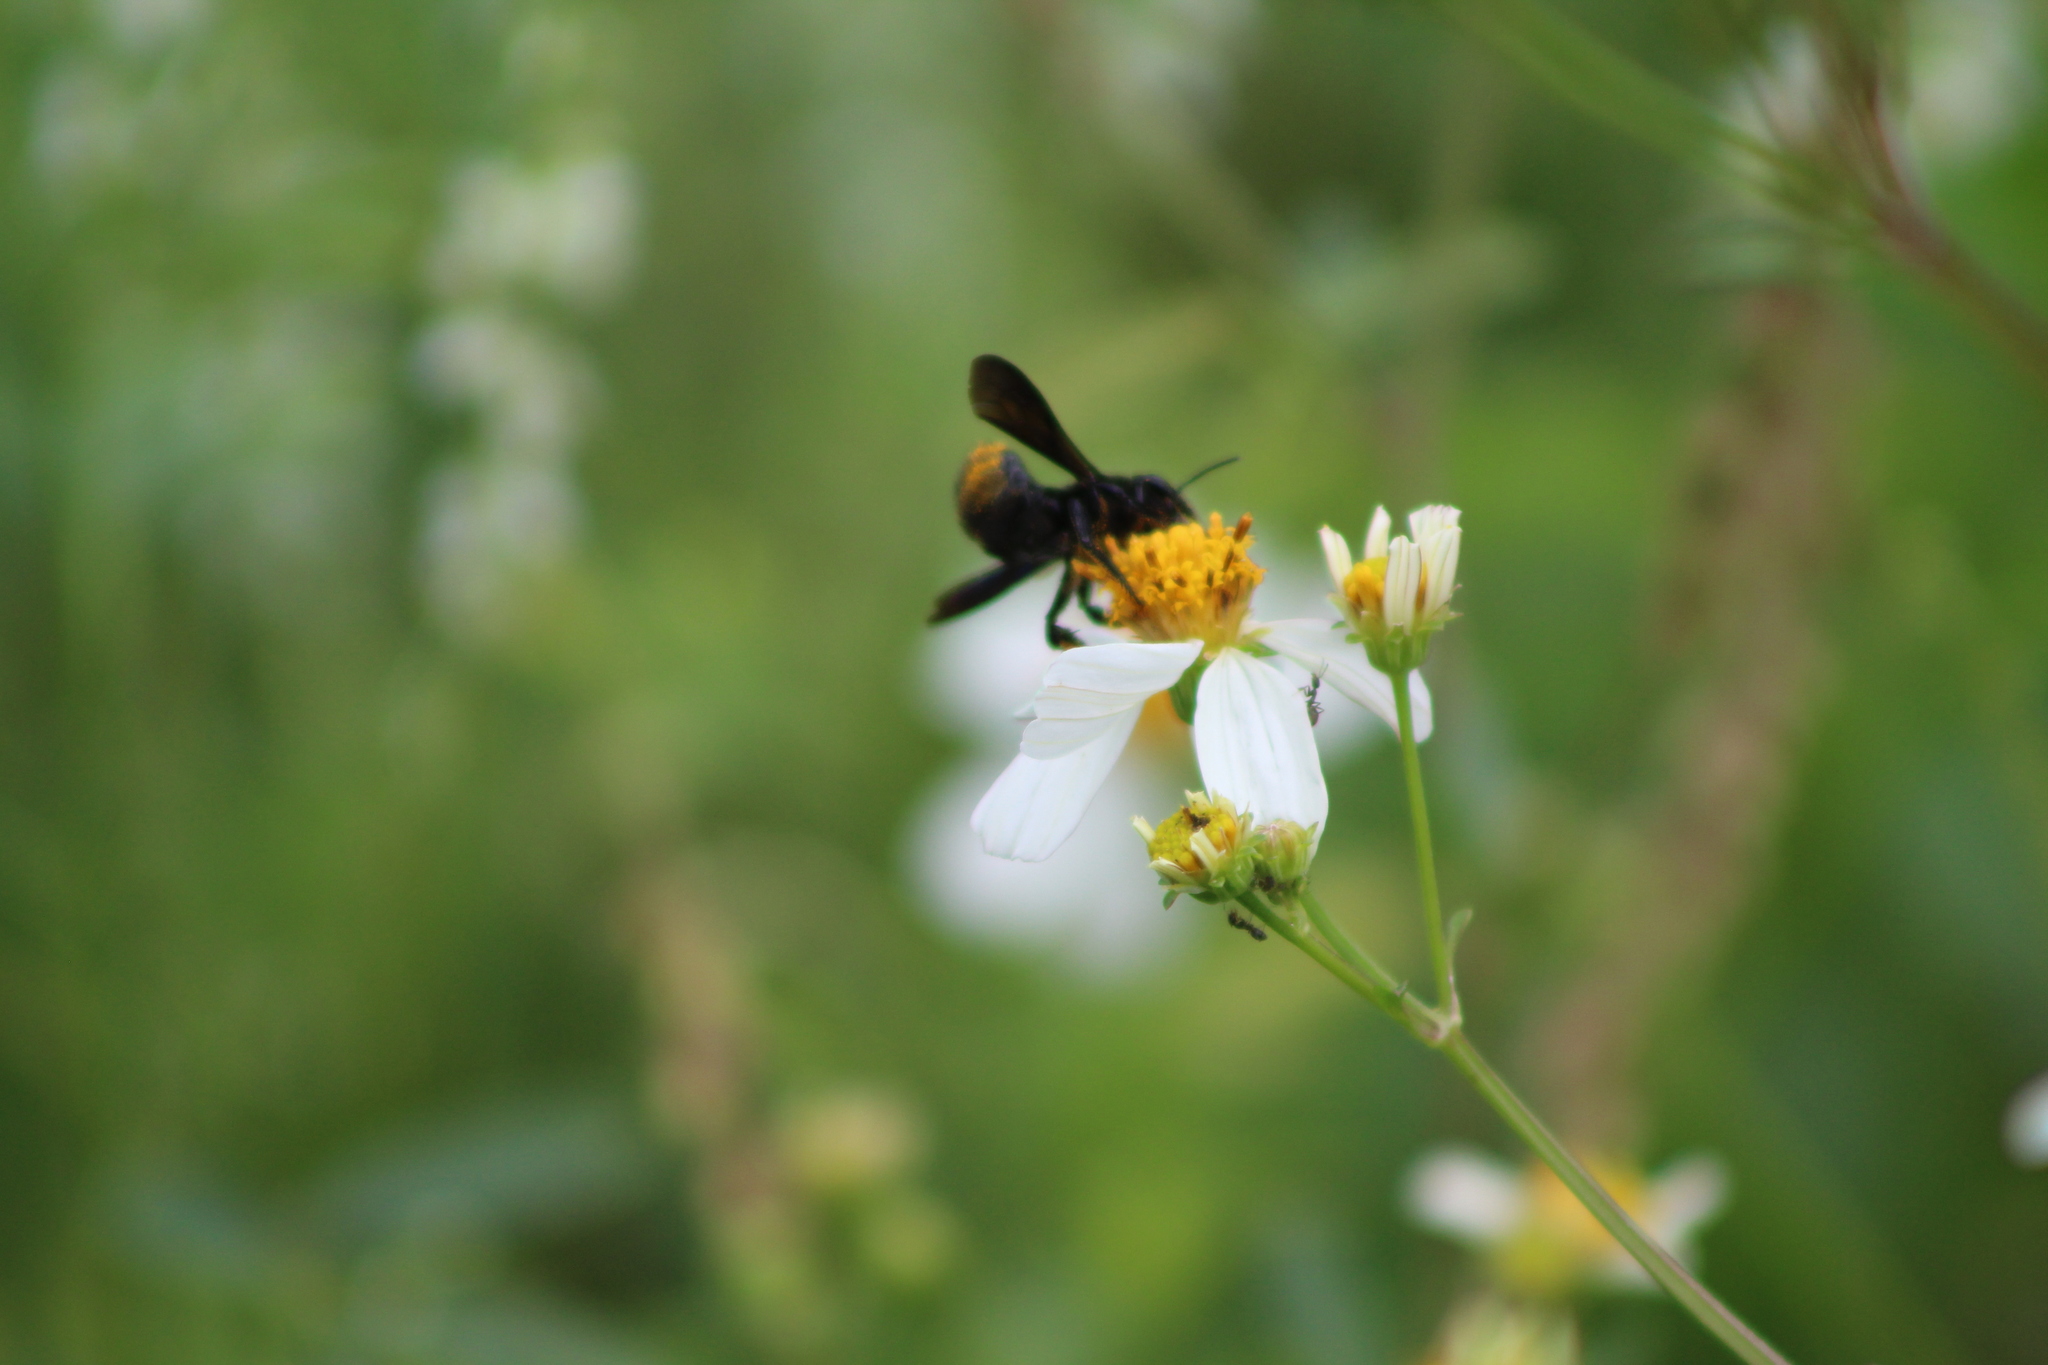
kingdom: Animalia
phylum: Arthropoda
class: Insecta
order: Hymenoptera
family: Megachilidae
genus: Megachile
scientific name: Megachile xylocopoides
